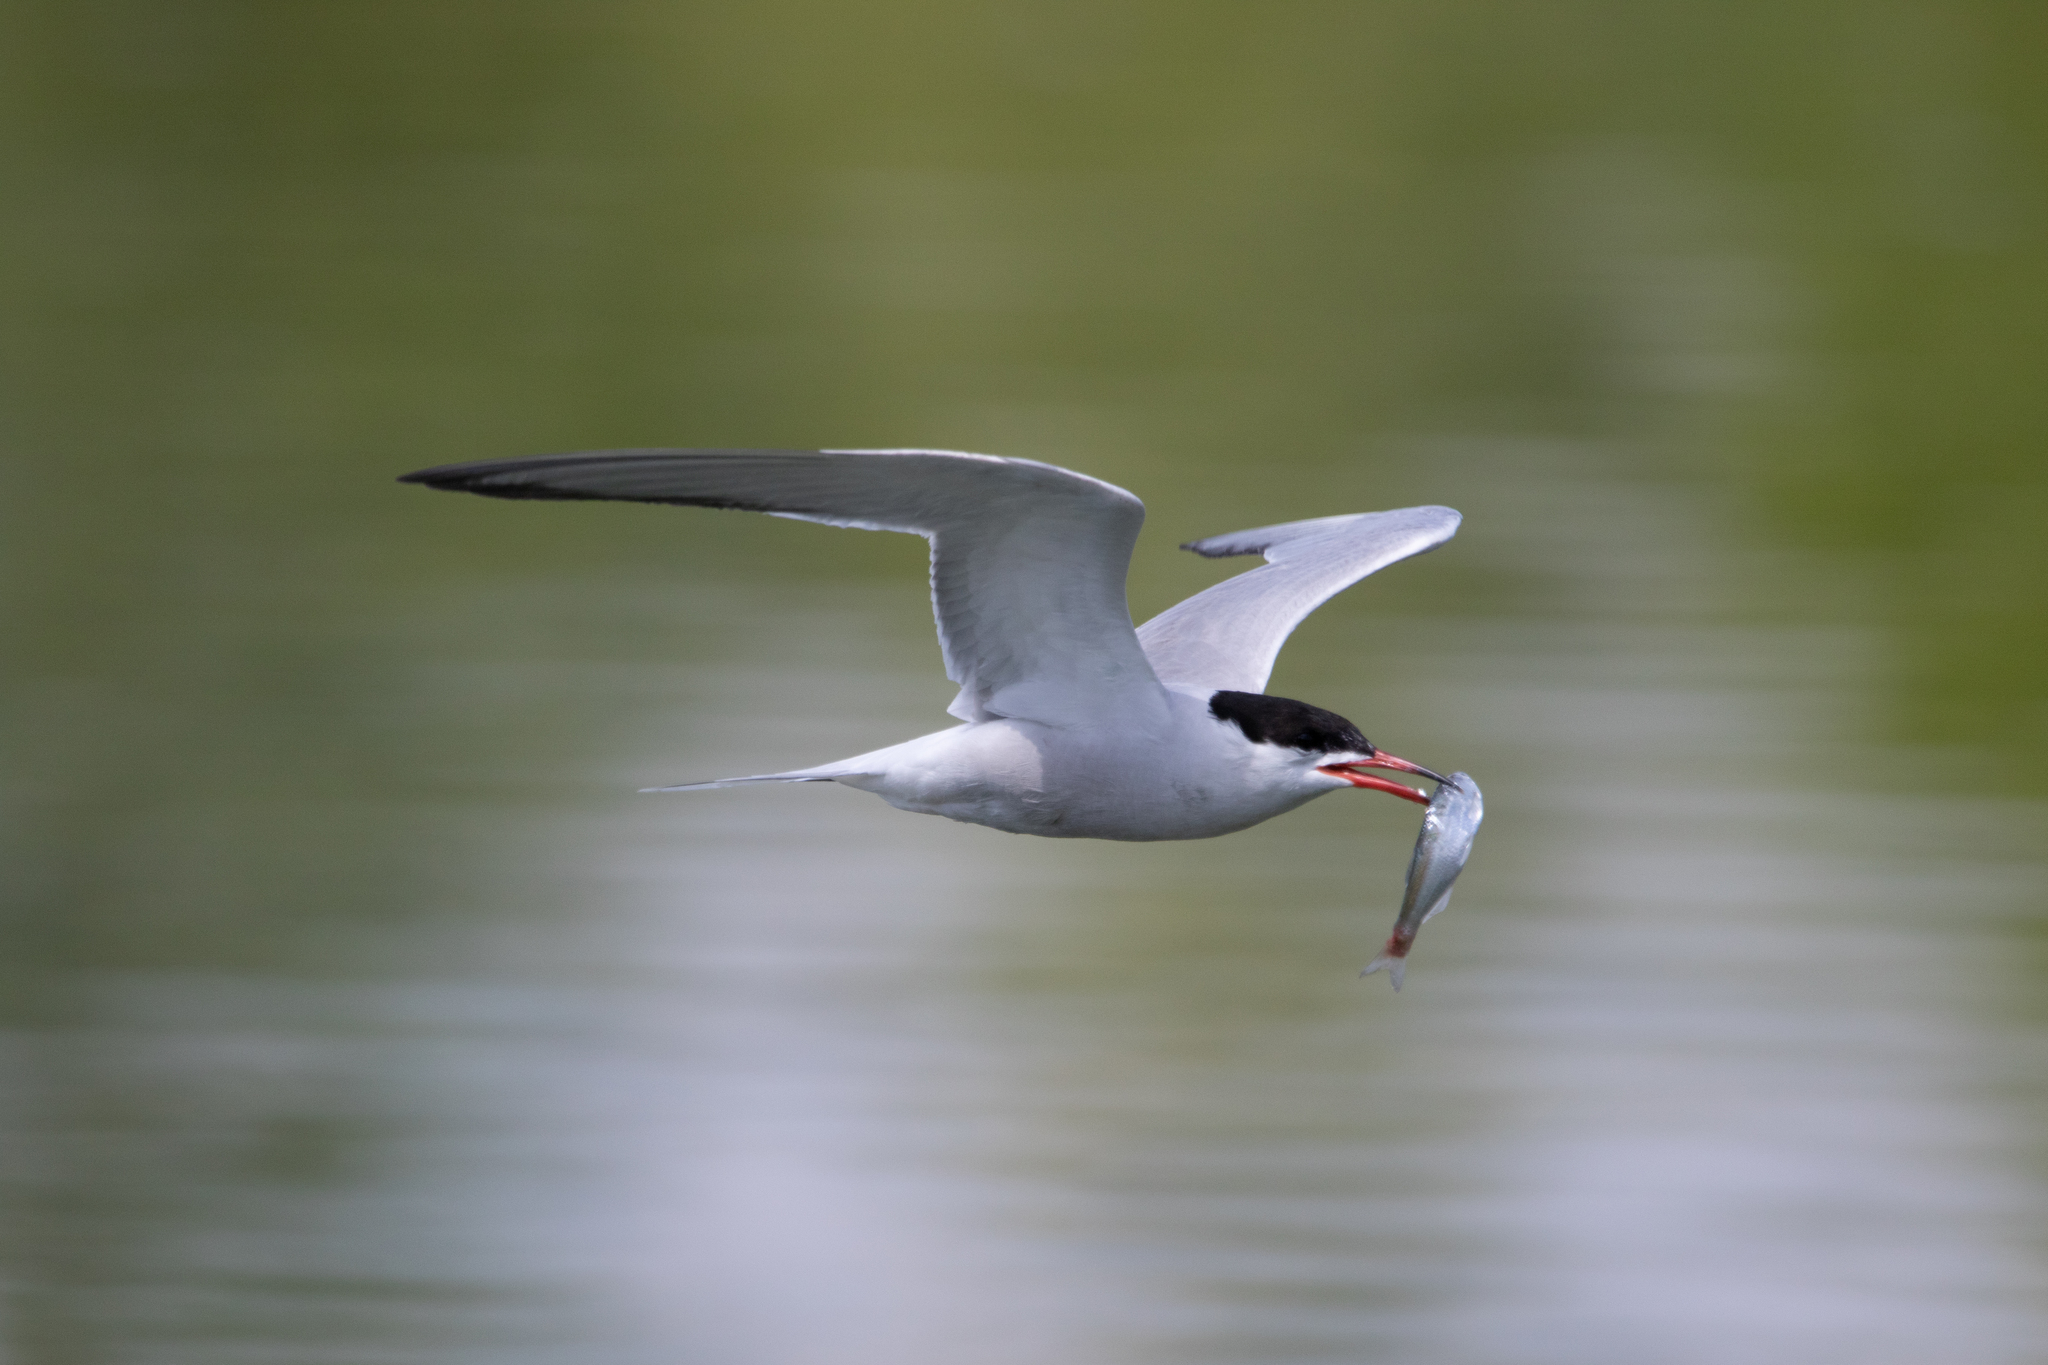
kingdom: Animalia
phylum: Chordata
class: Aves
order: Charadriiformes
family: Laridae
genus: Sterna
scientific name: Sterna hirundo
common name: Common tern
